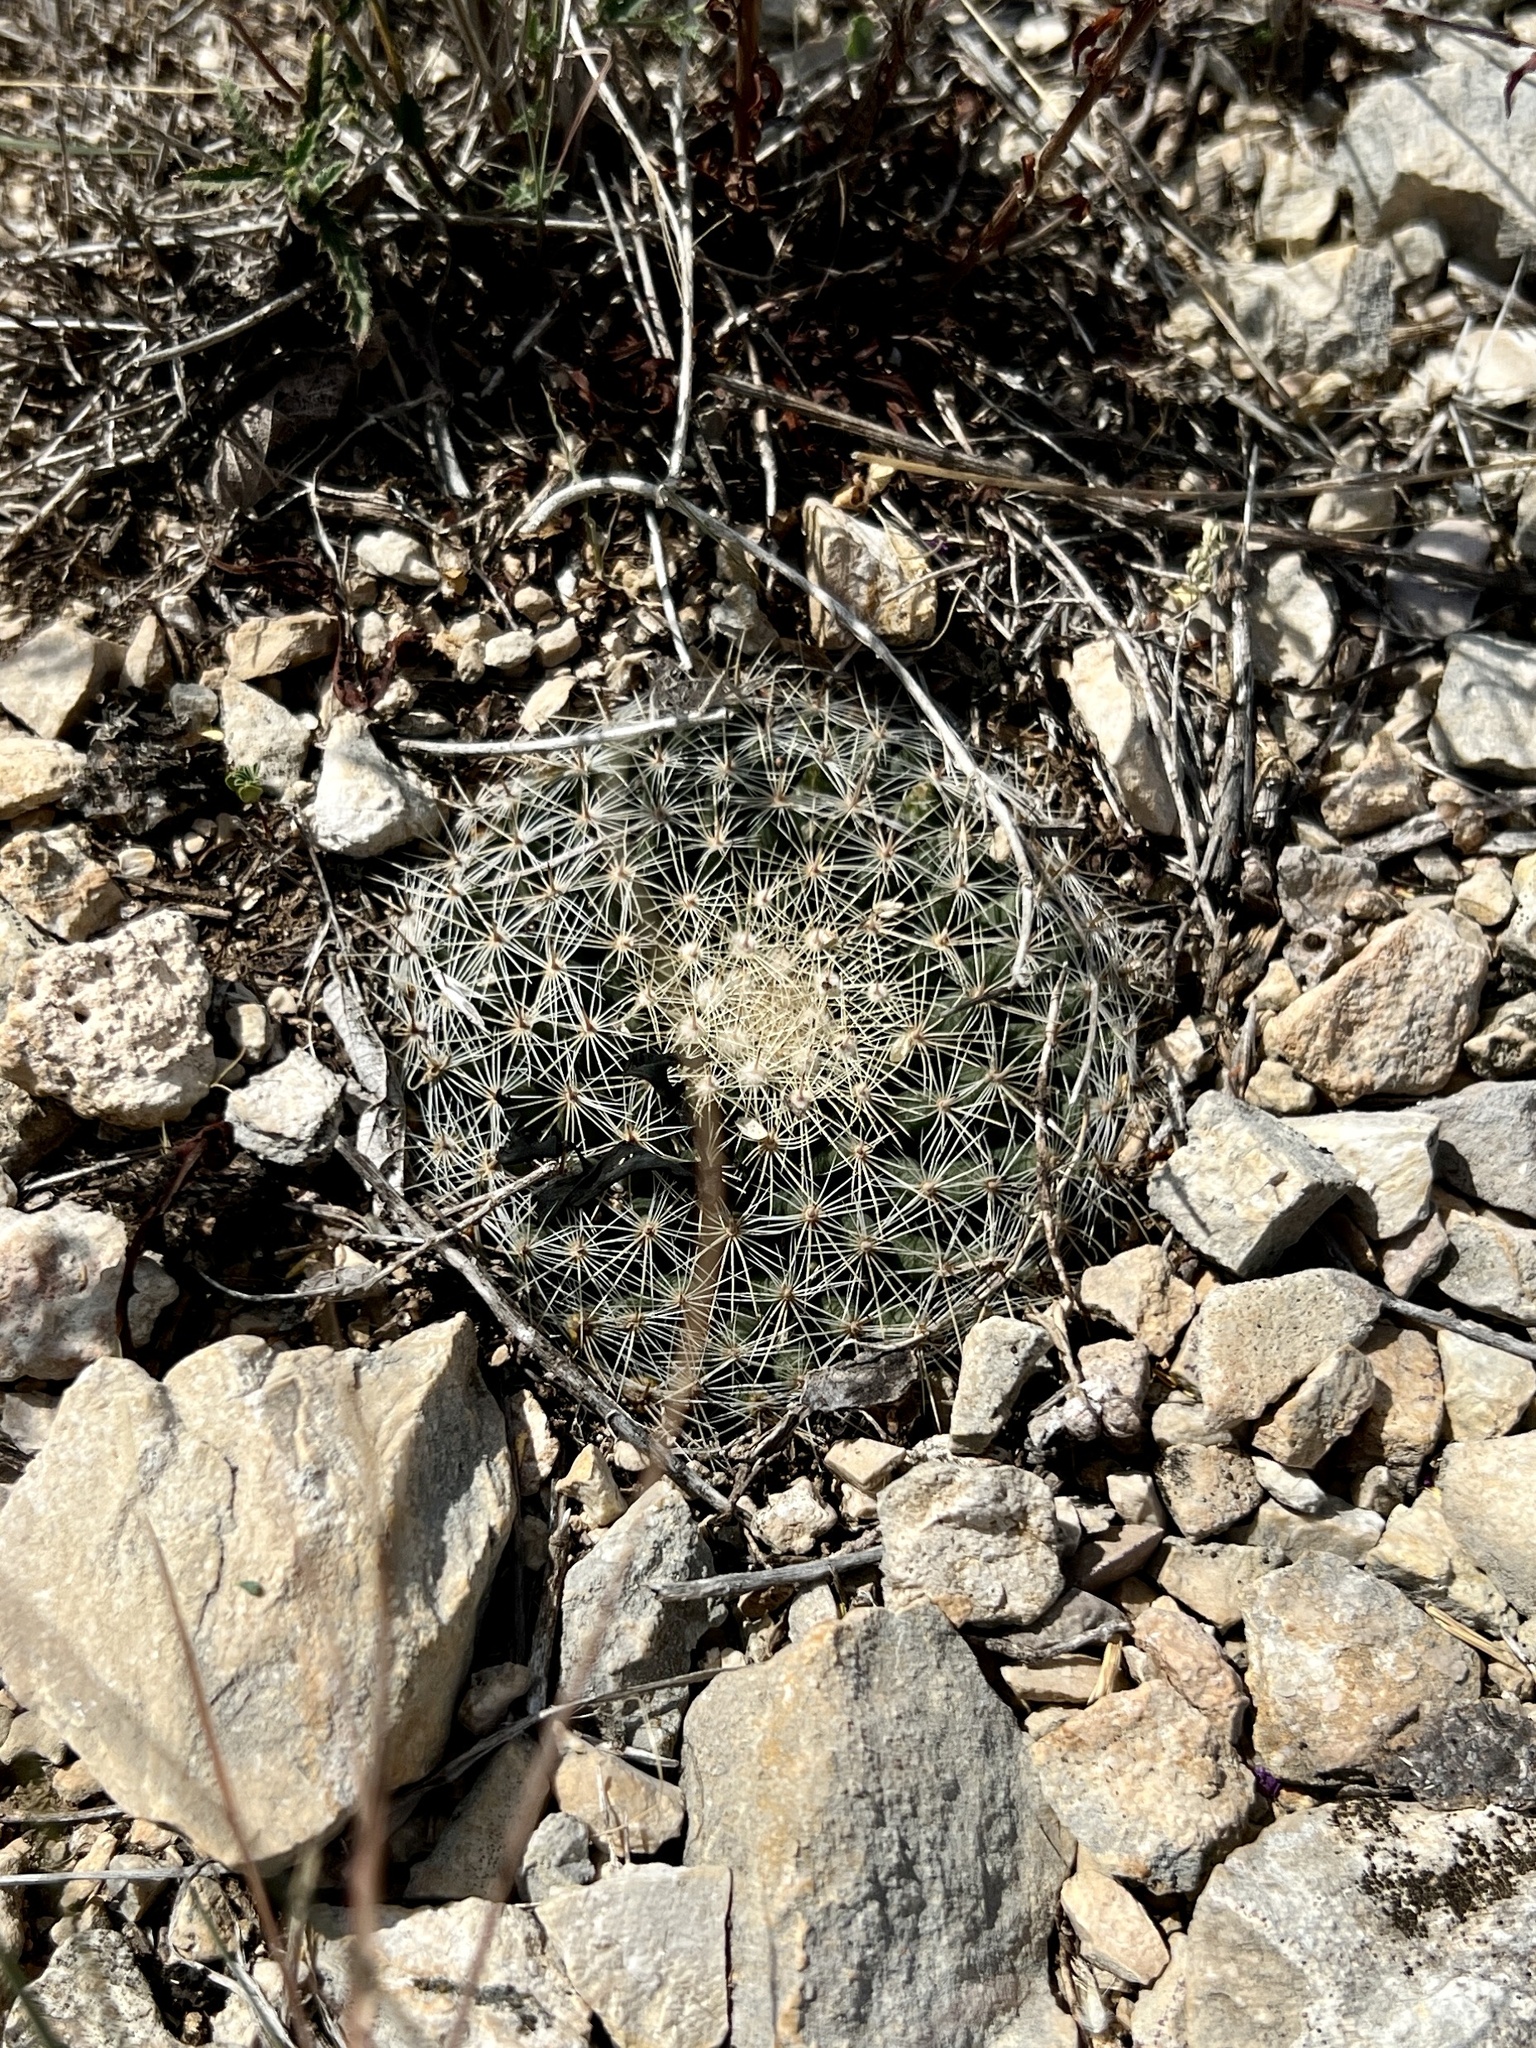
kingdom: Plantae
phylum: Tracheophyta
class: Magnoliopsida
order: Caryophyllales
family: Cactaceae
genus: Mammillaria
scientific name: Mammillaria heyderi
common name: Little nipple cactus
